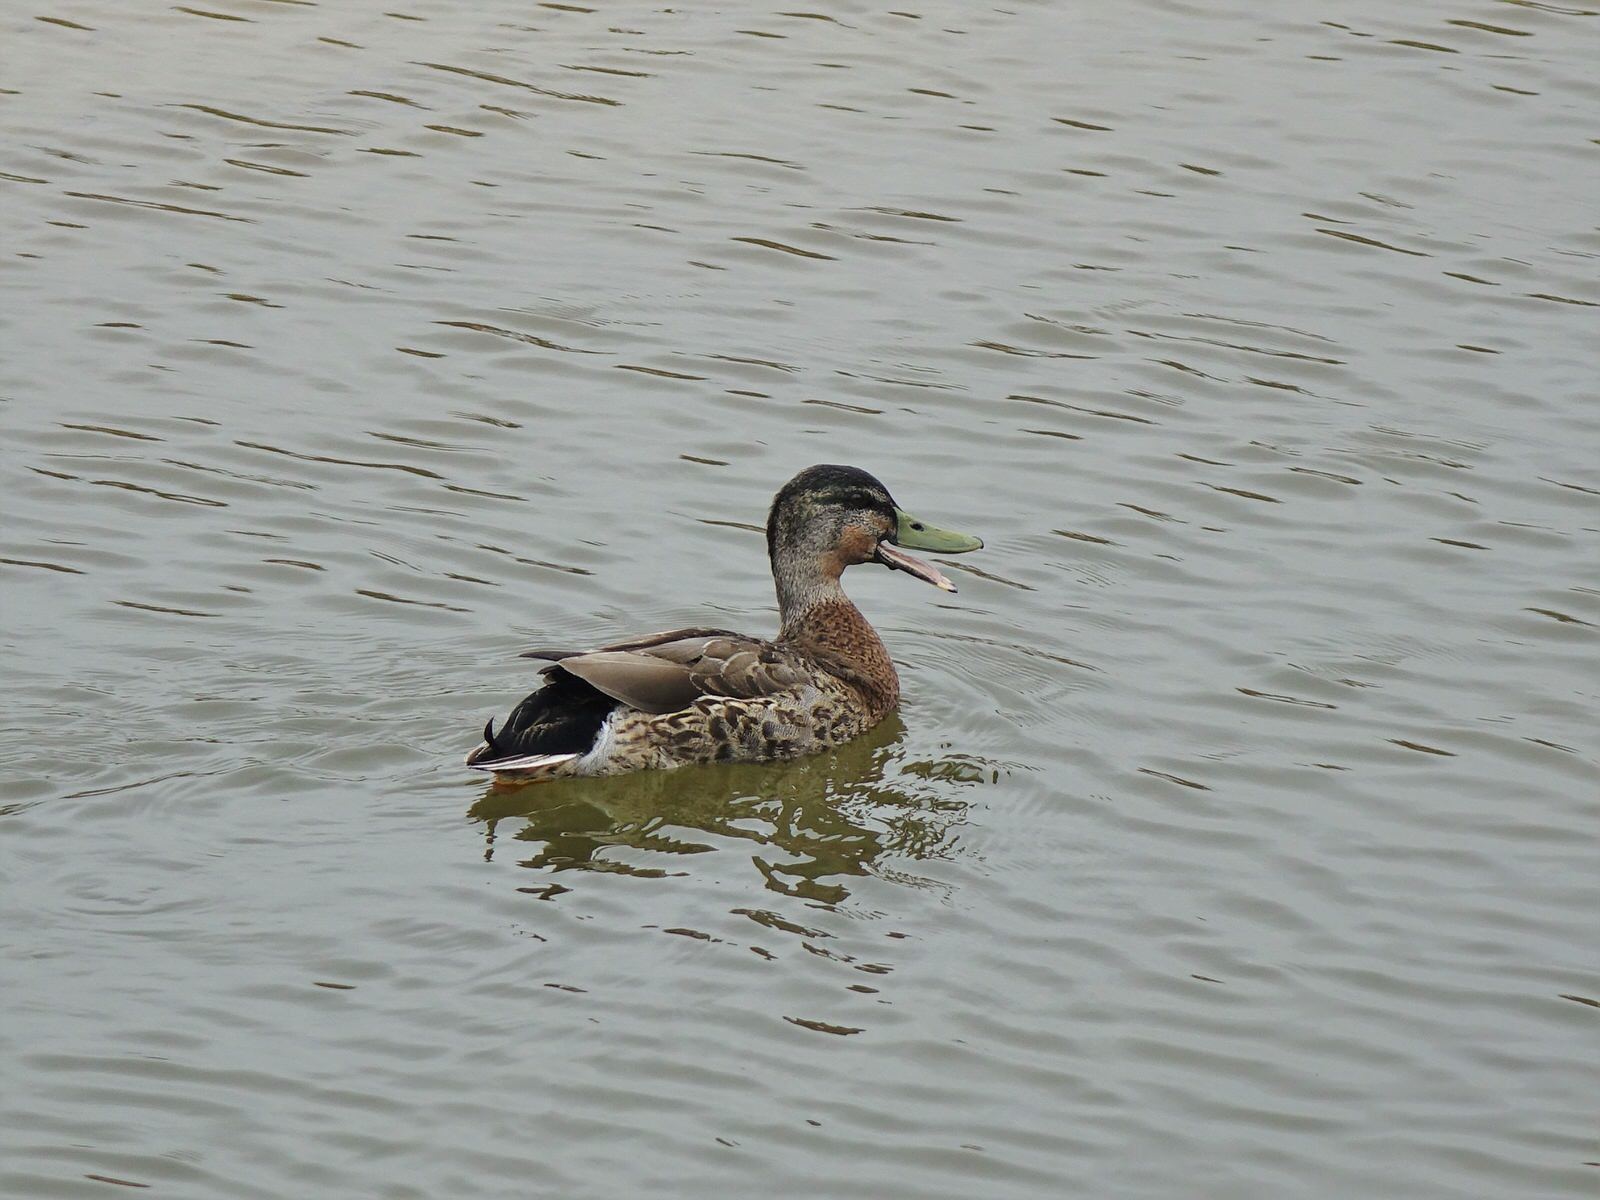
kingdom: Animalia
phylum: Chordata
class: Aves
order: Anseriformes
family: Anatidae
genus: Anas
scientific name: Anas platyrhynchos
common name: Mallard
